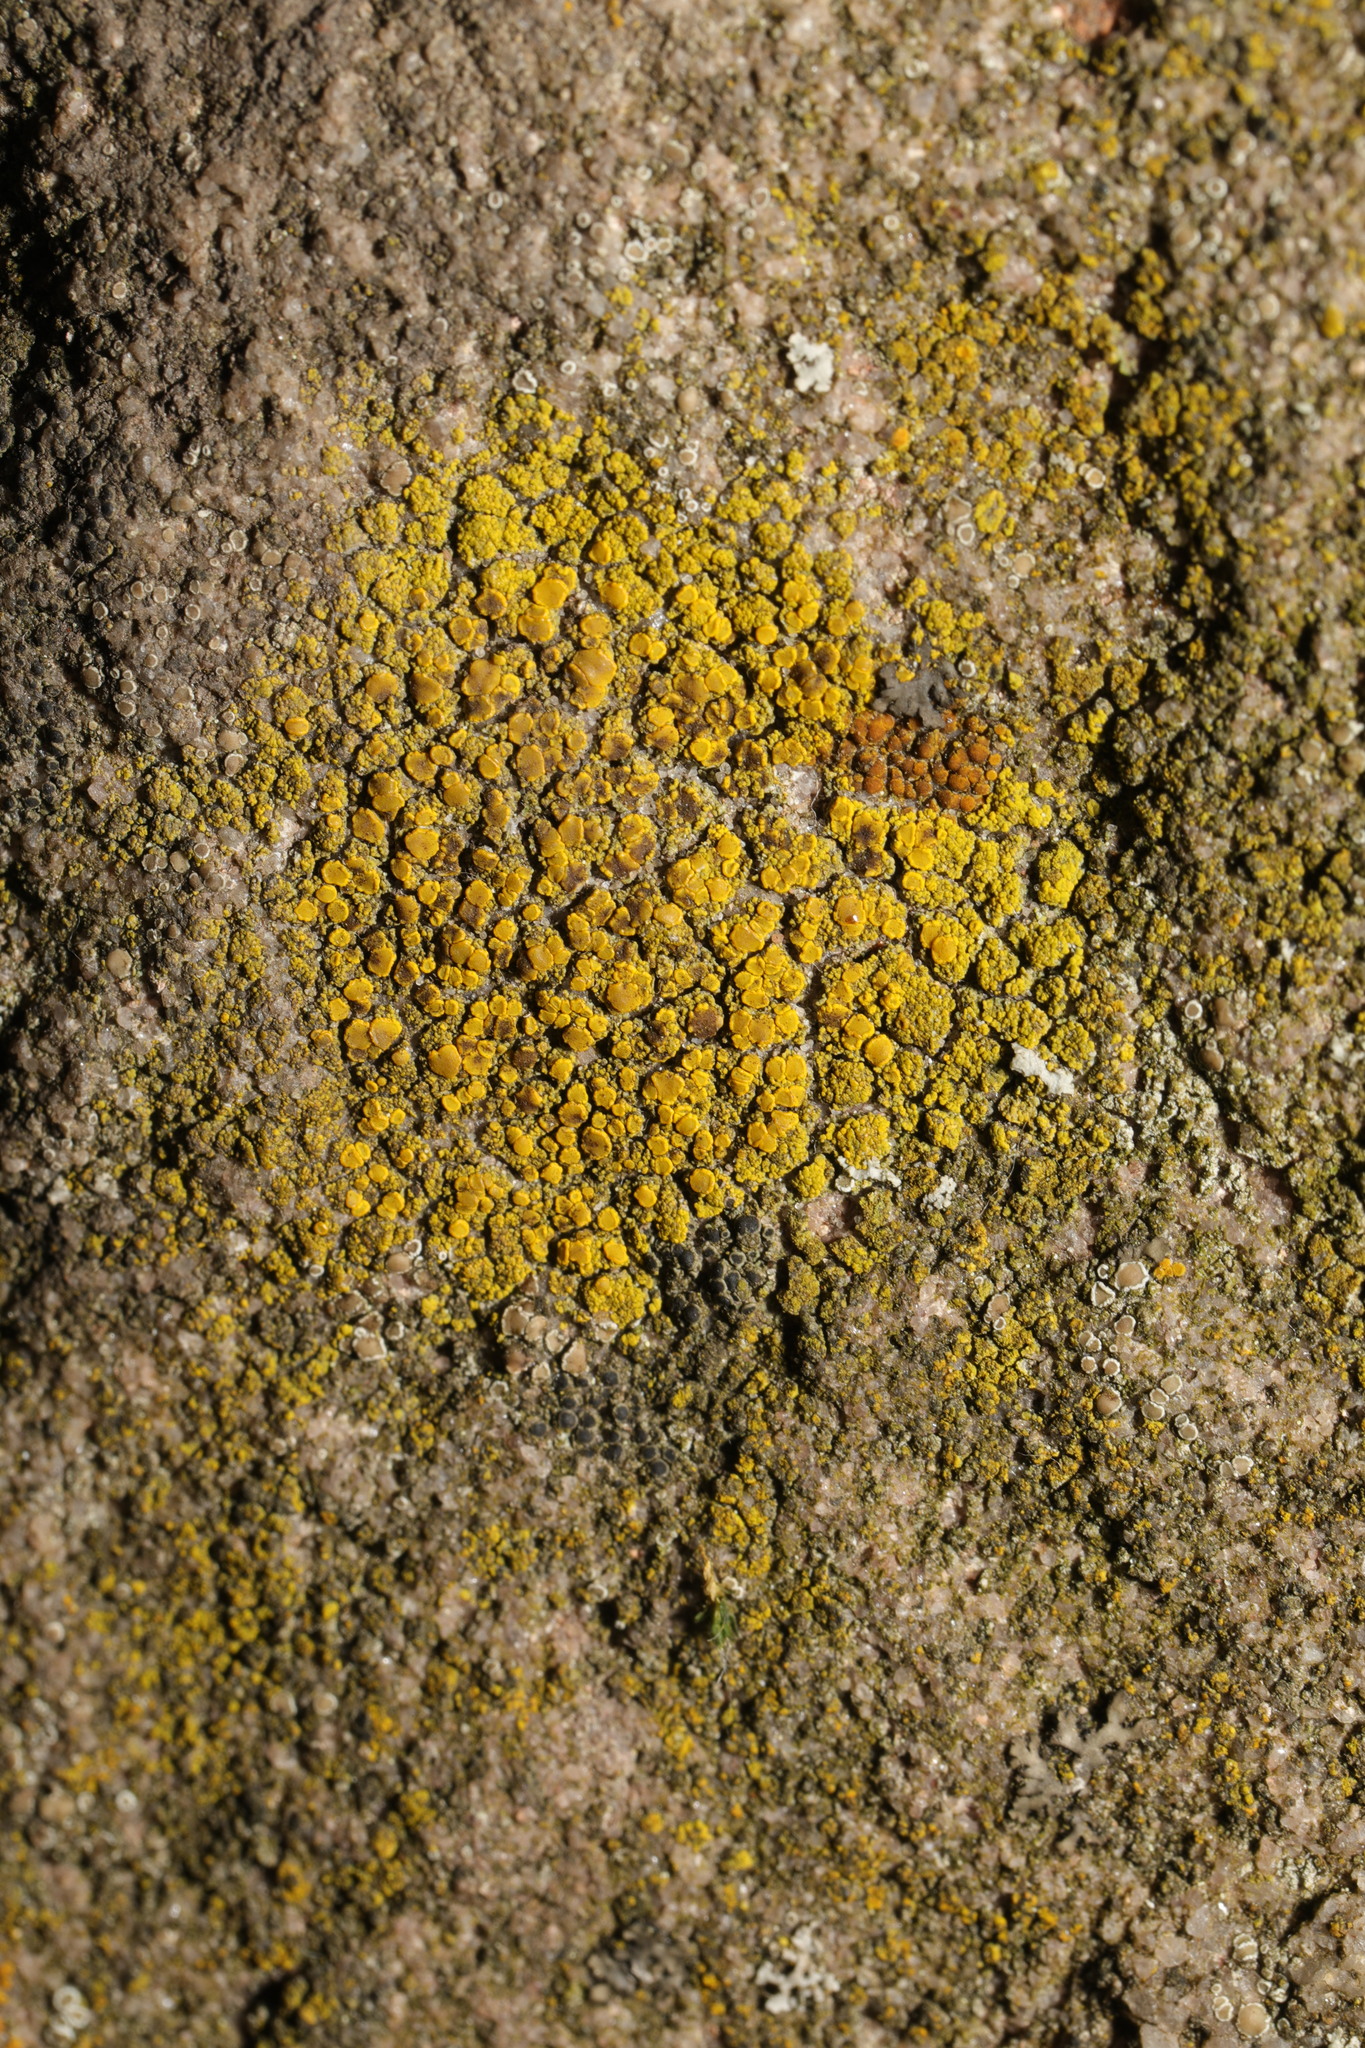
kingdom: Fungi
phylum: Ascomycota
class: Candelariomycetes
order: Candelariales
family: Candelariaceae
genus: Candelariella
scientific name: Candelariella vitellina
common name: Common goldspeck
